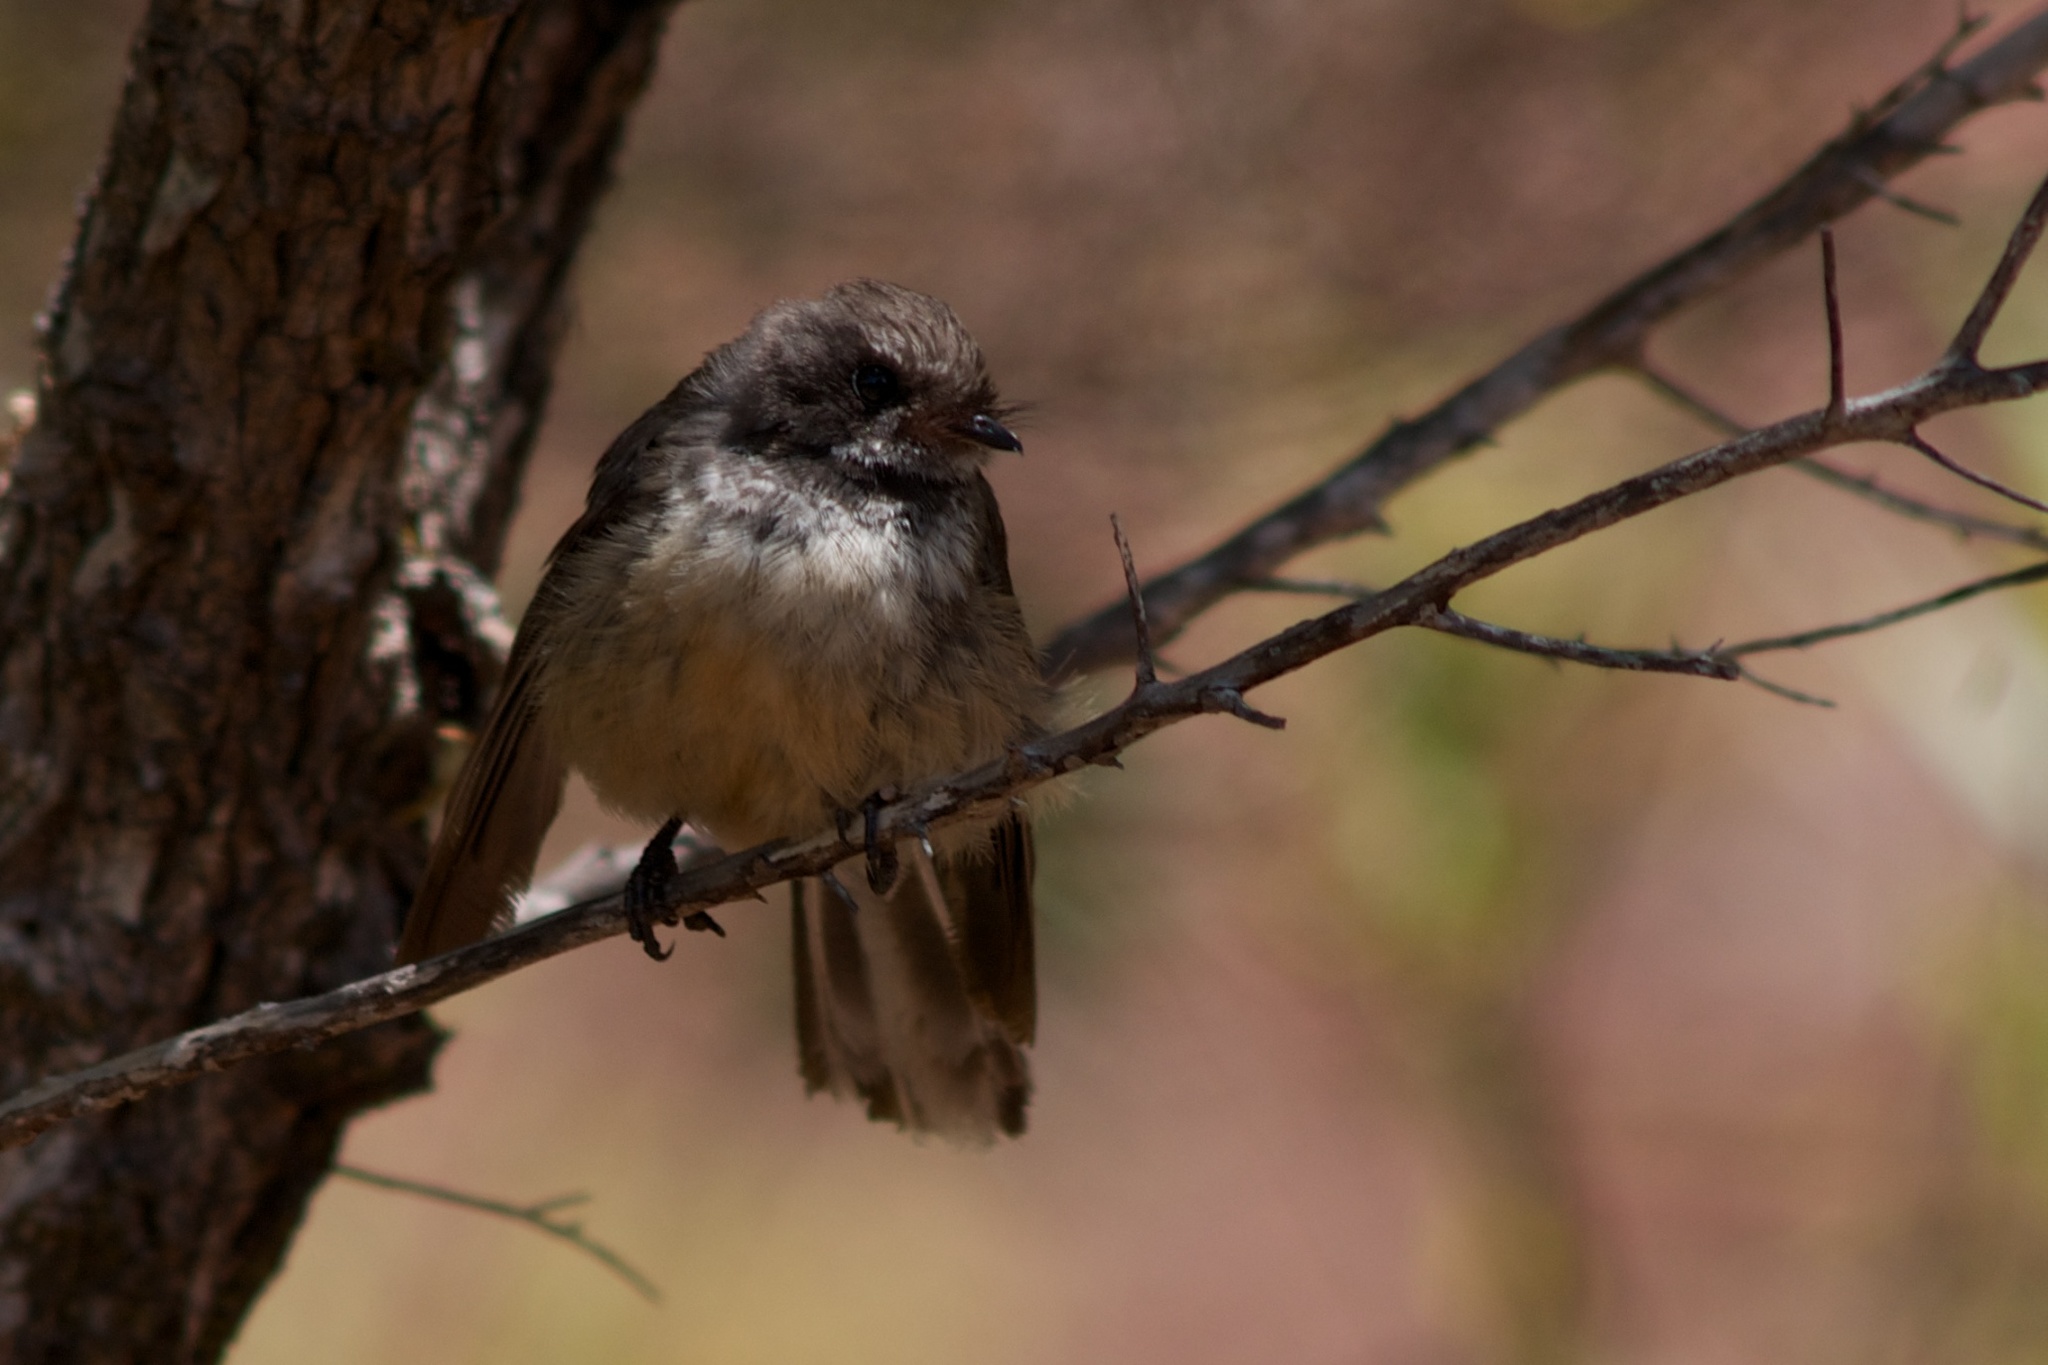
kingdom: Animalia
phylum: Chordata
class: Aves
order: Passeriformes
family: Rhipiduridae
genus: Rhipidura
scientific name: Rhipidura fuliginosa
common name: New zealand fantail
